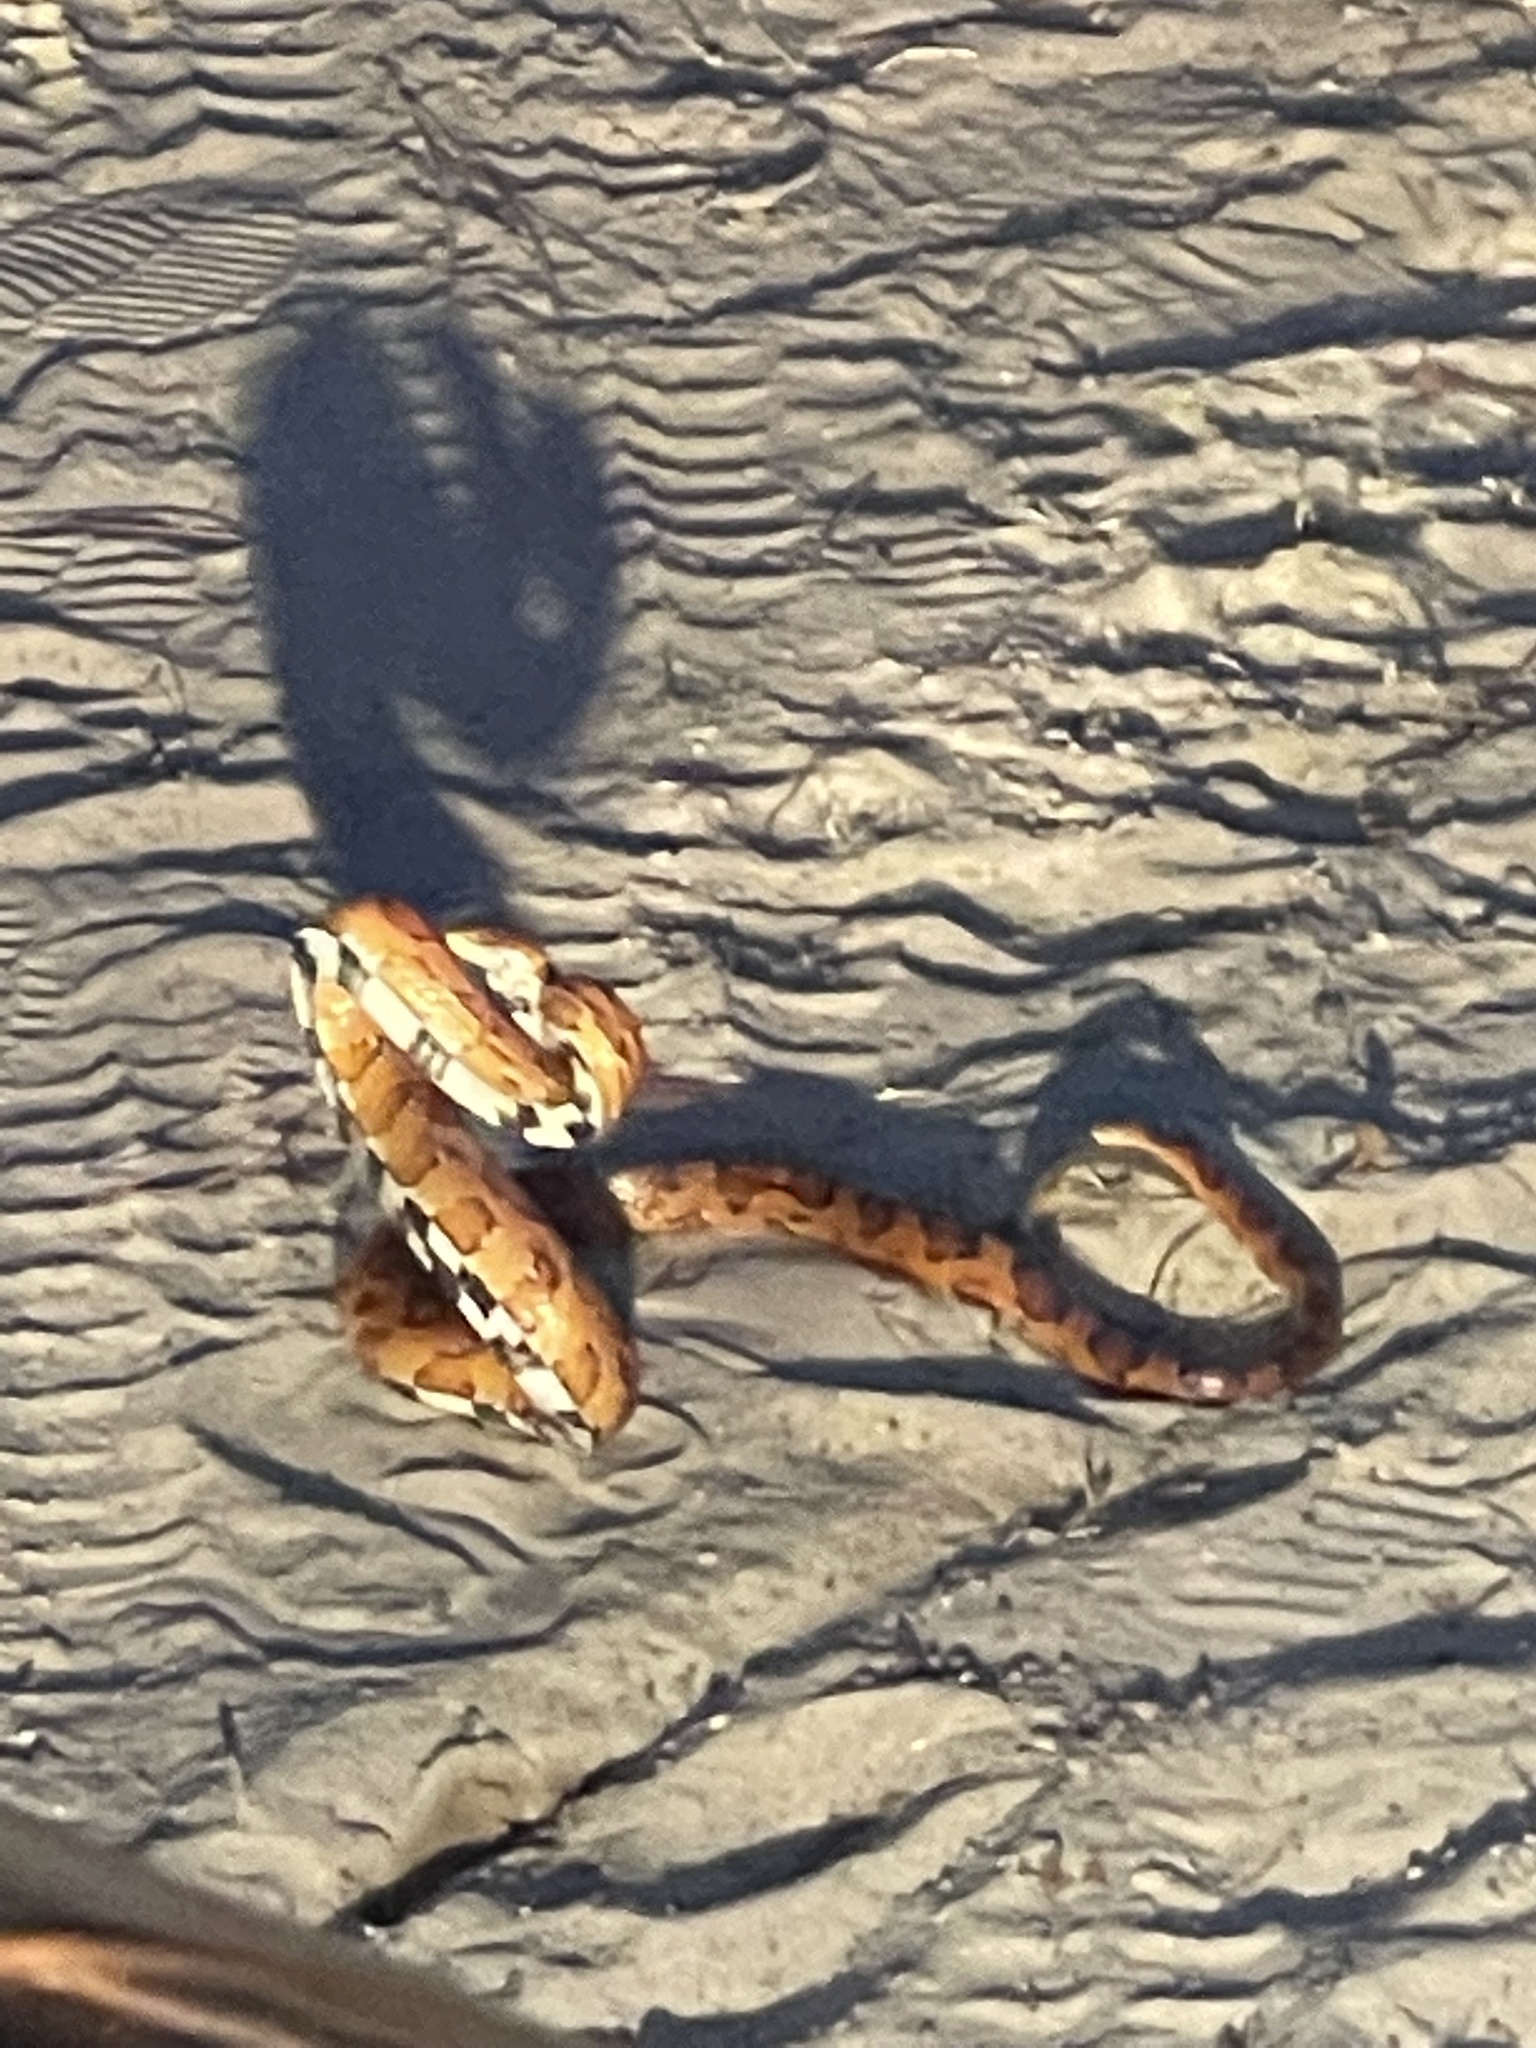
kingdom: Animalia
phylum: Chordata
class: Squamata
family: Colubridae
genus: Pantherophis
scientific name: Pantherophis guttatus
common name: Red cornsnake
